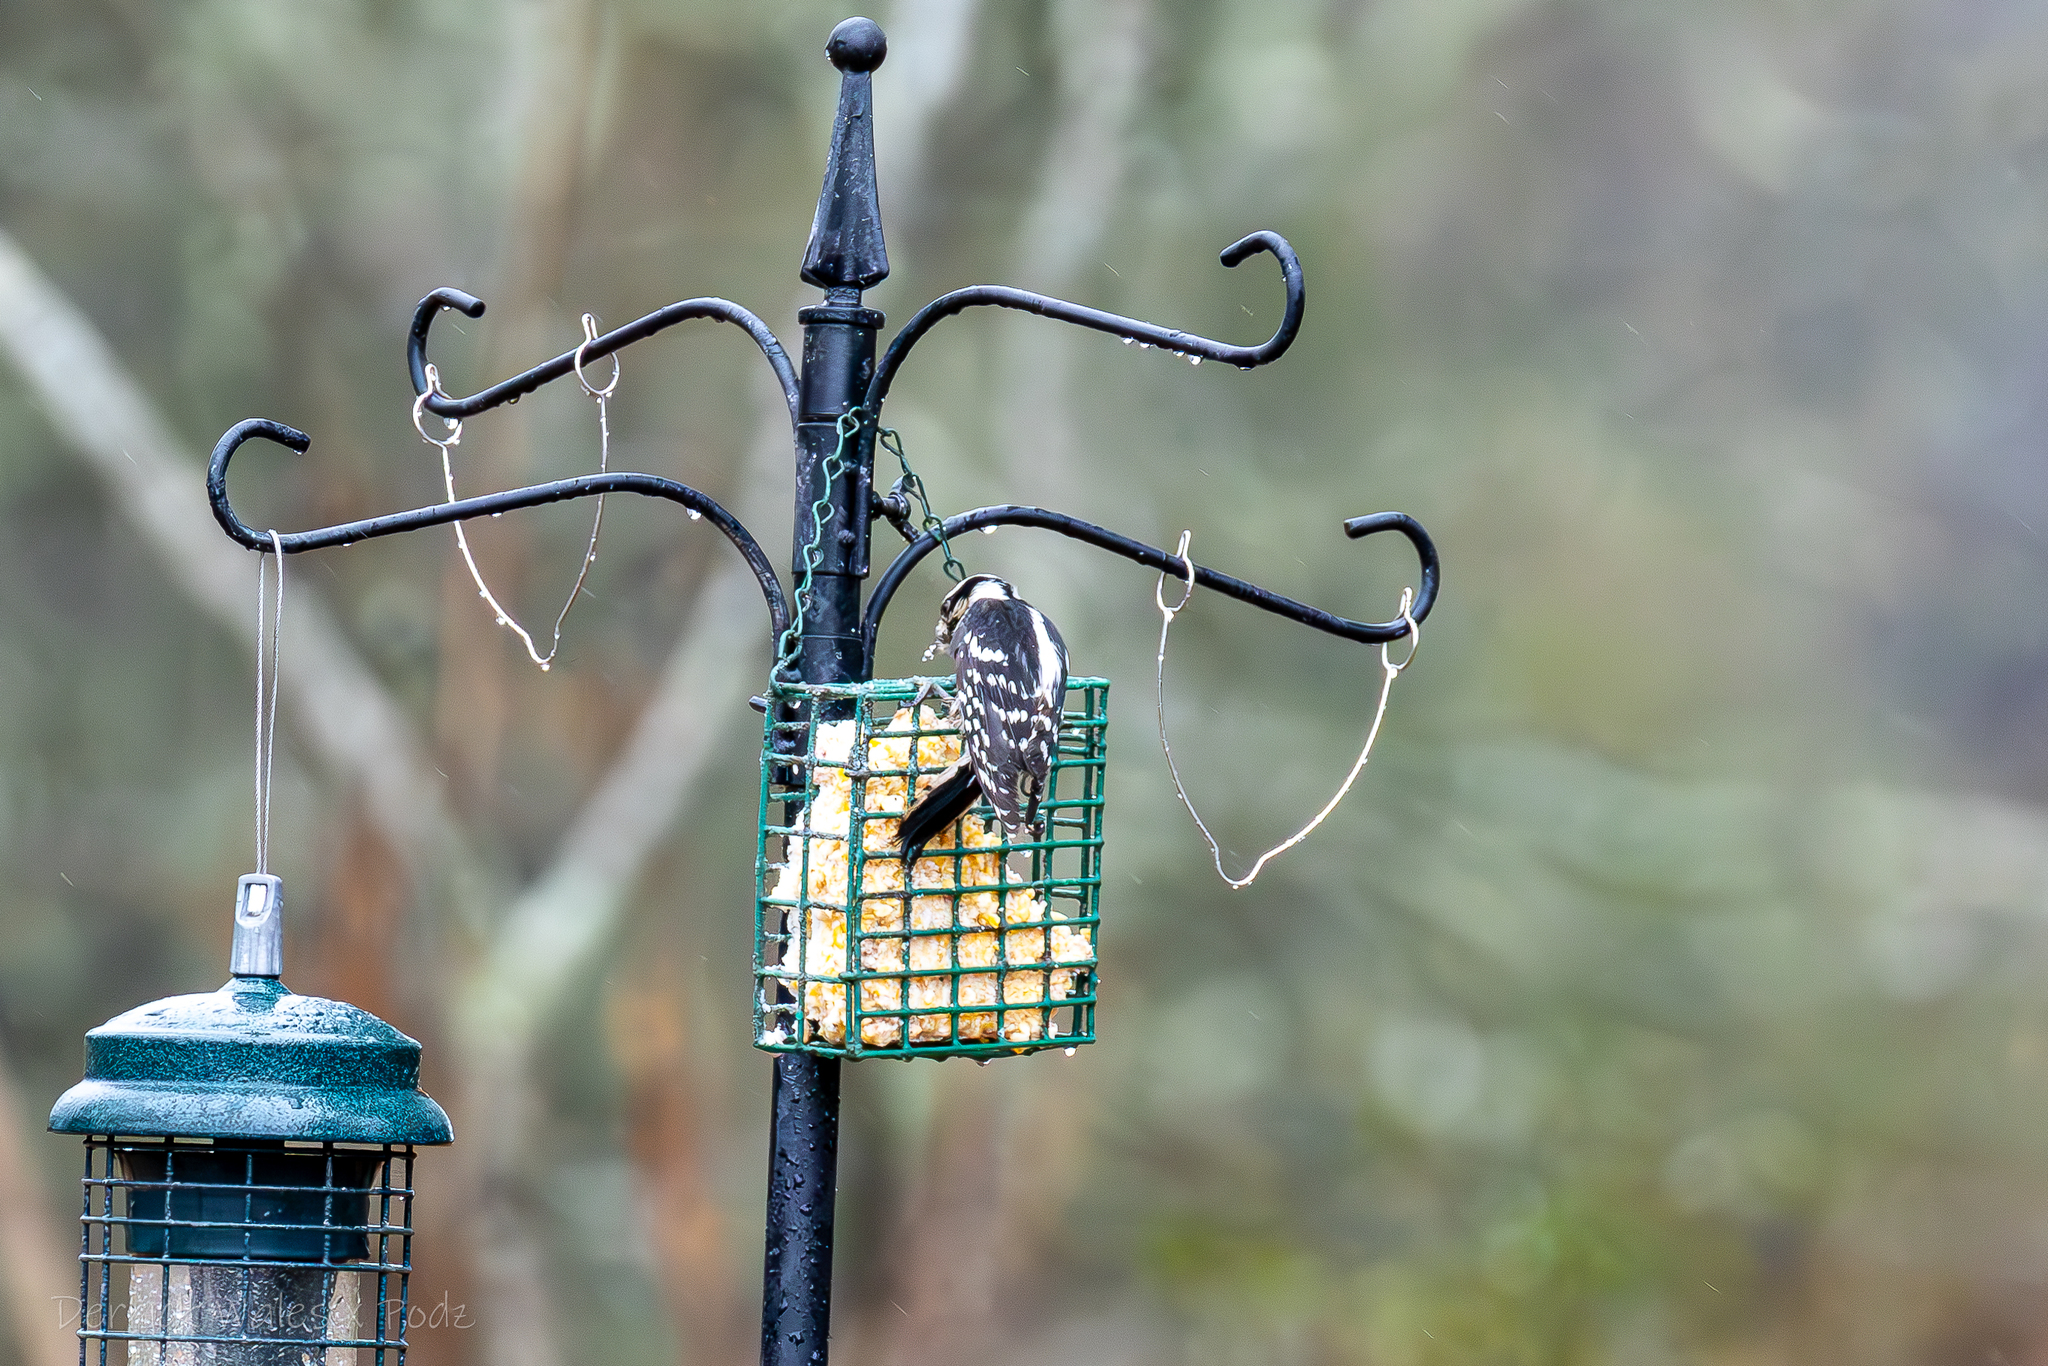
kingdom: Animalia
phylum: Chordata
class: Aves
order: Piciformes
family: Picidae
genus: Dryobates
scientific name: Dryobates pubescens
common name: Downy woodpecker
